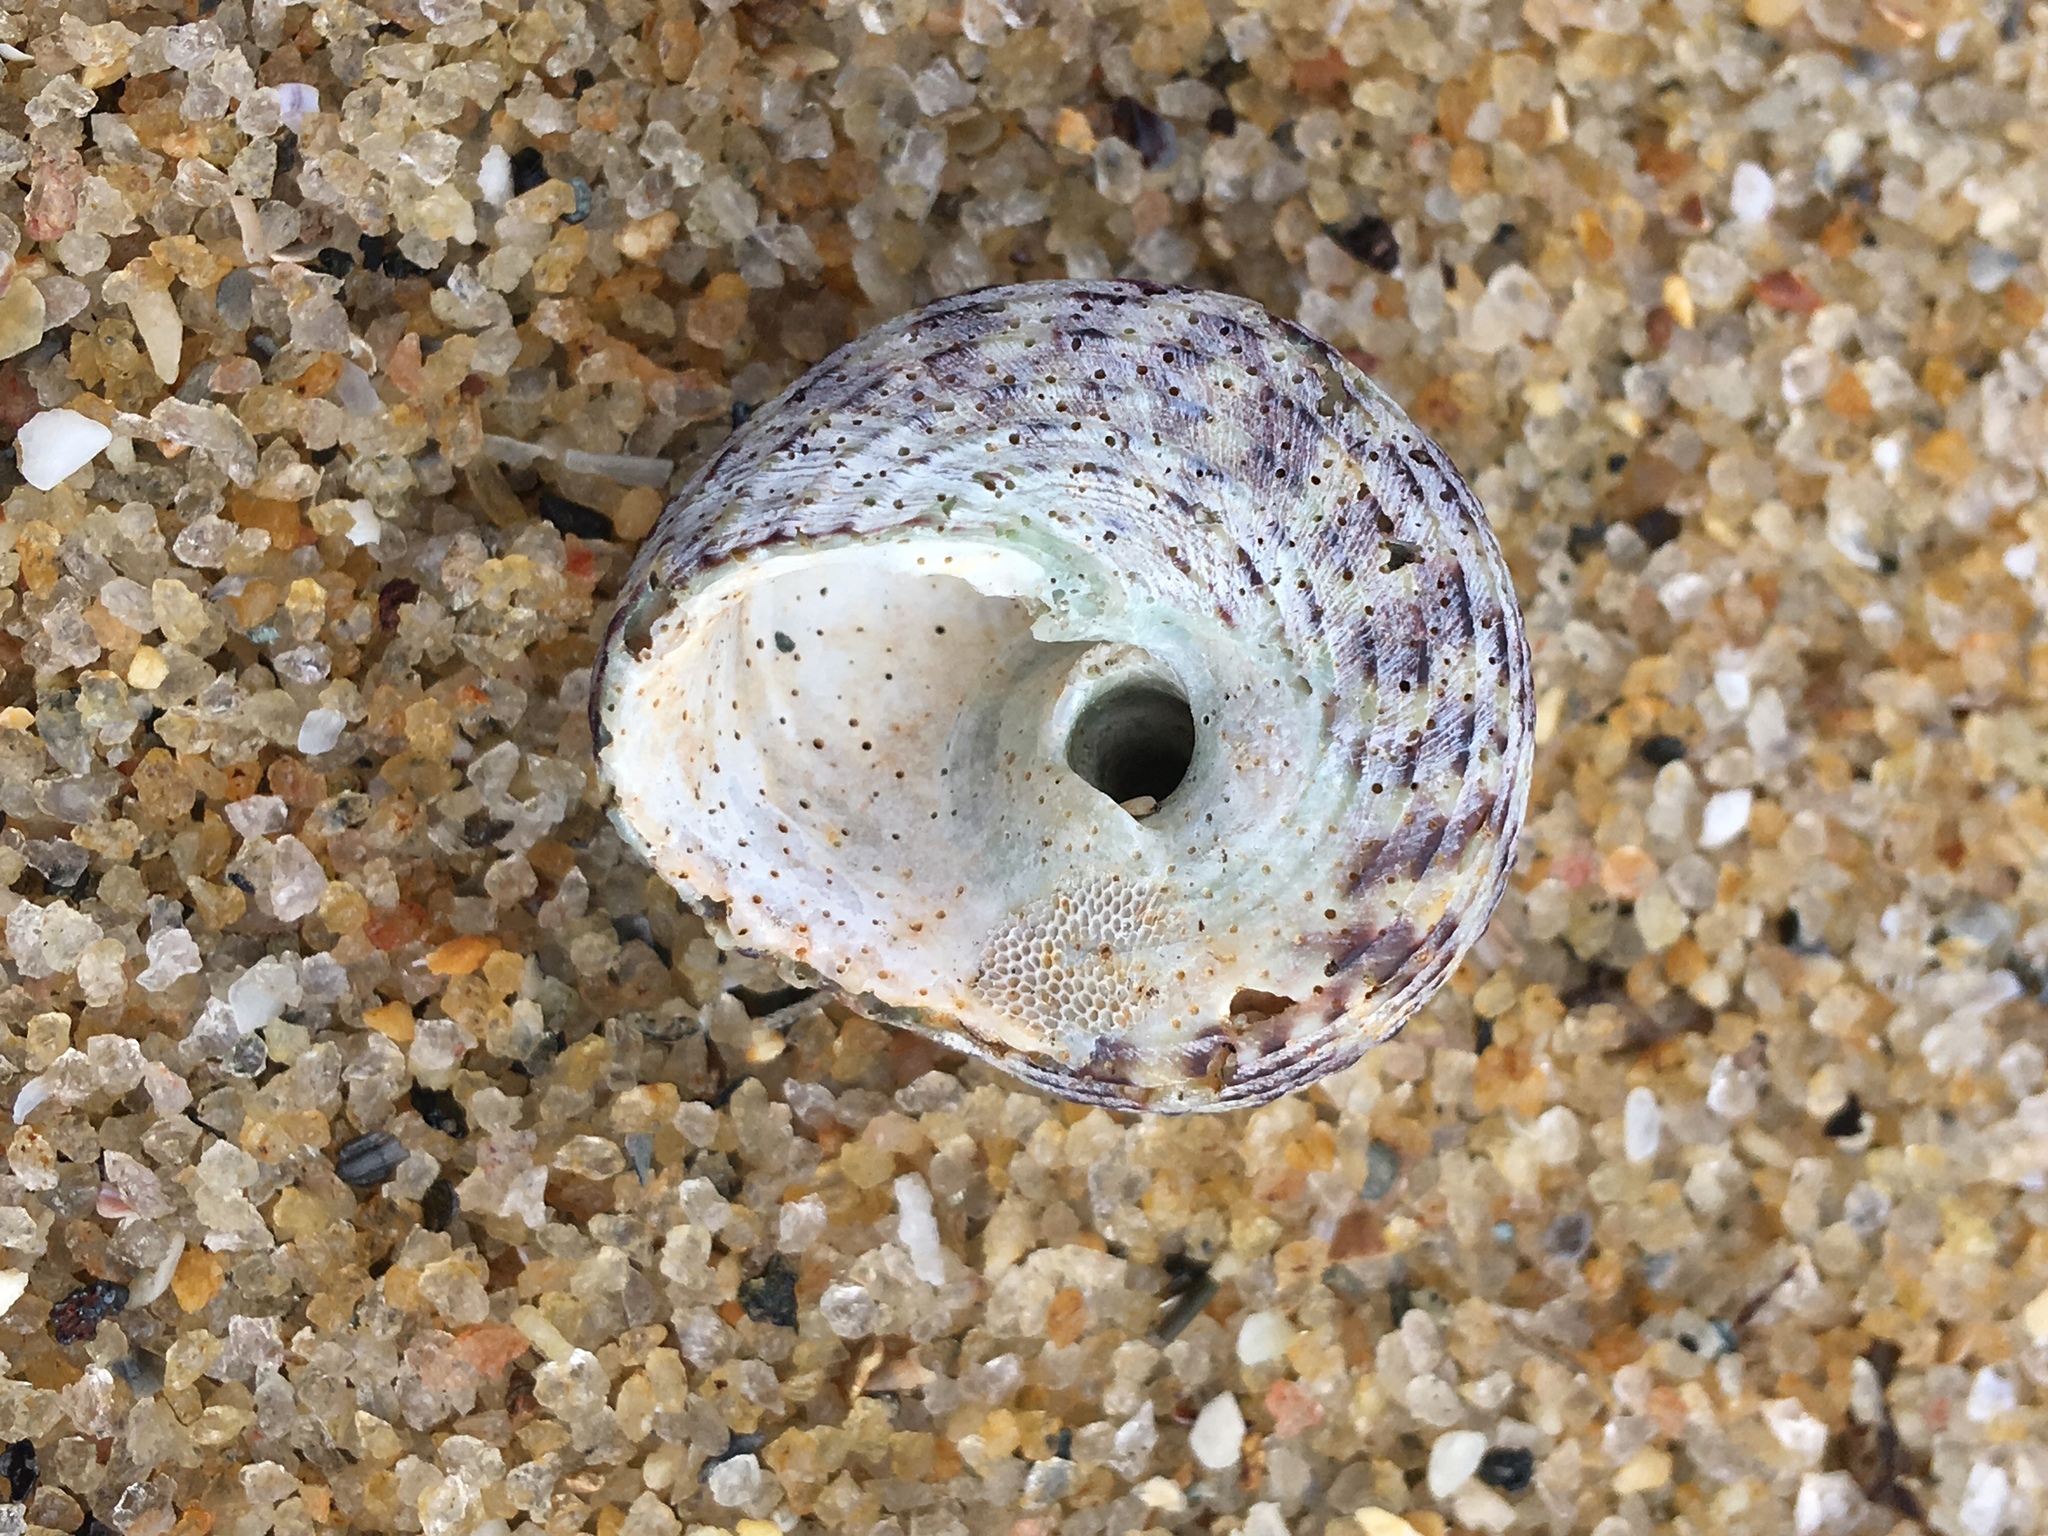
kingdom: Animalia
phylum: Mollusca
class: Gastropoda
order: Trochida
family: Tegulidae
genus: Agathistoma
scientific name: Agathistoma viridulum
